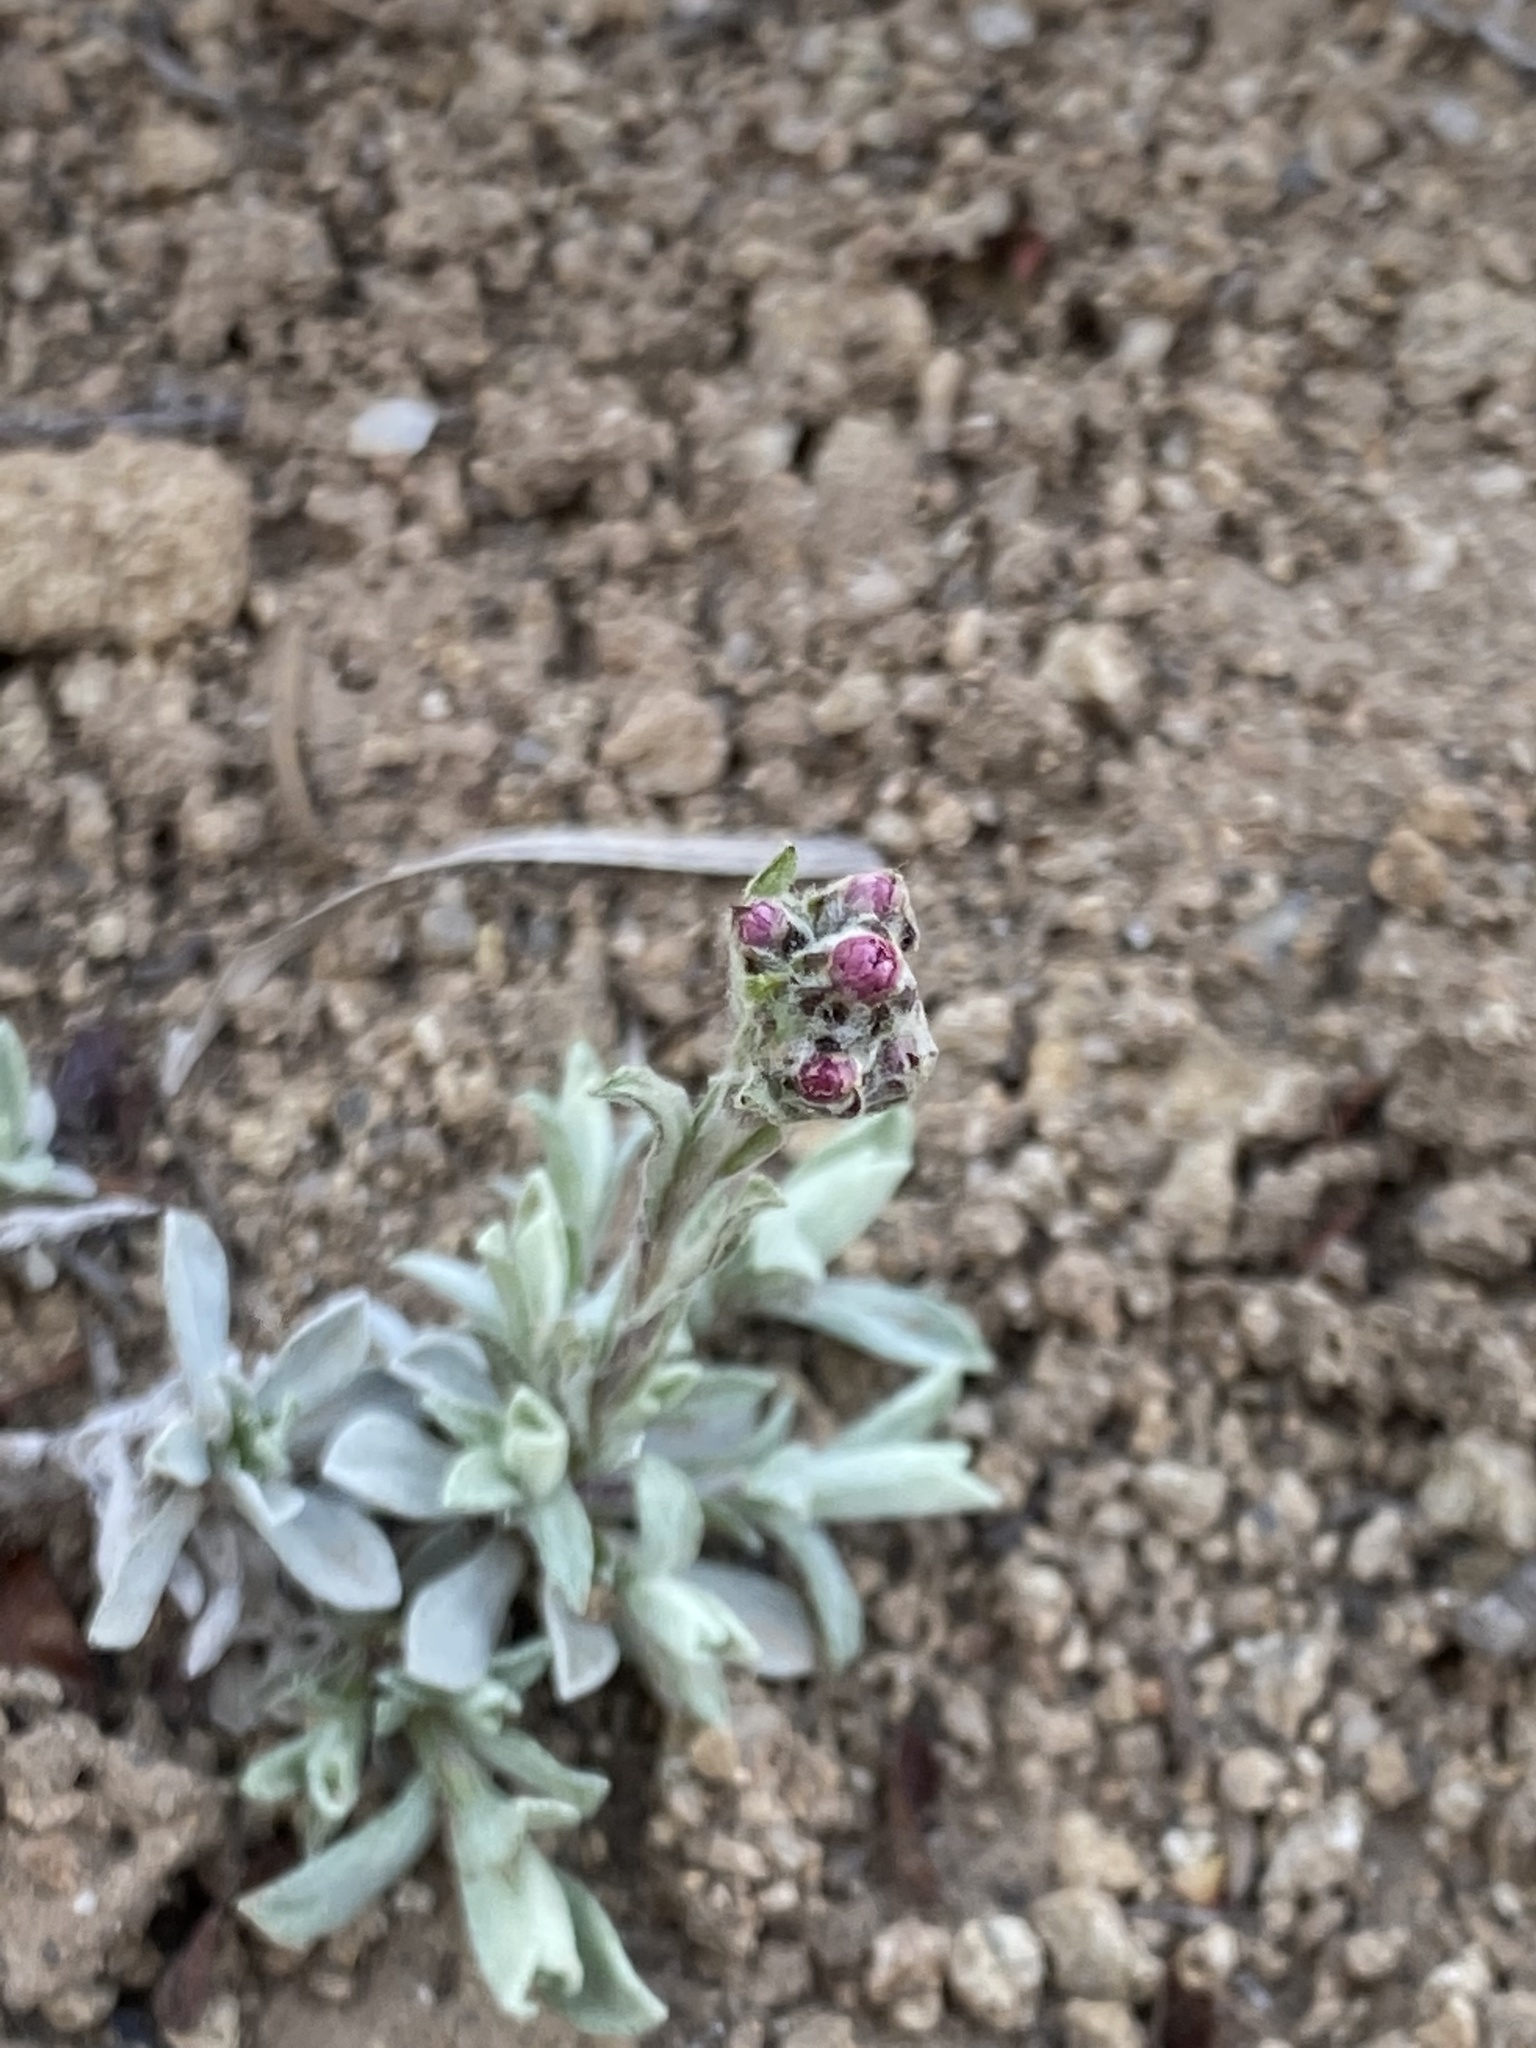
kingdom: Plantae
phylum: Tracheophyta
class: Magnoliopsida
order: Asterales
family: Asteraceae
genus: Antennaria
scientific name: Antennaria rosea
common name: Rosy pussytoes
